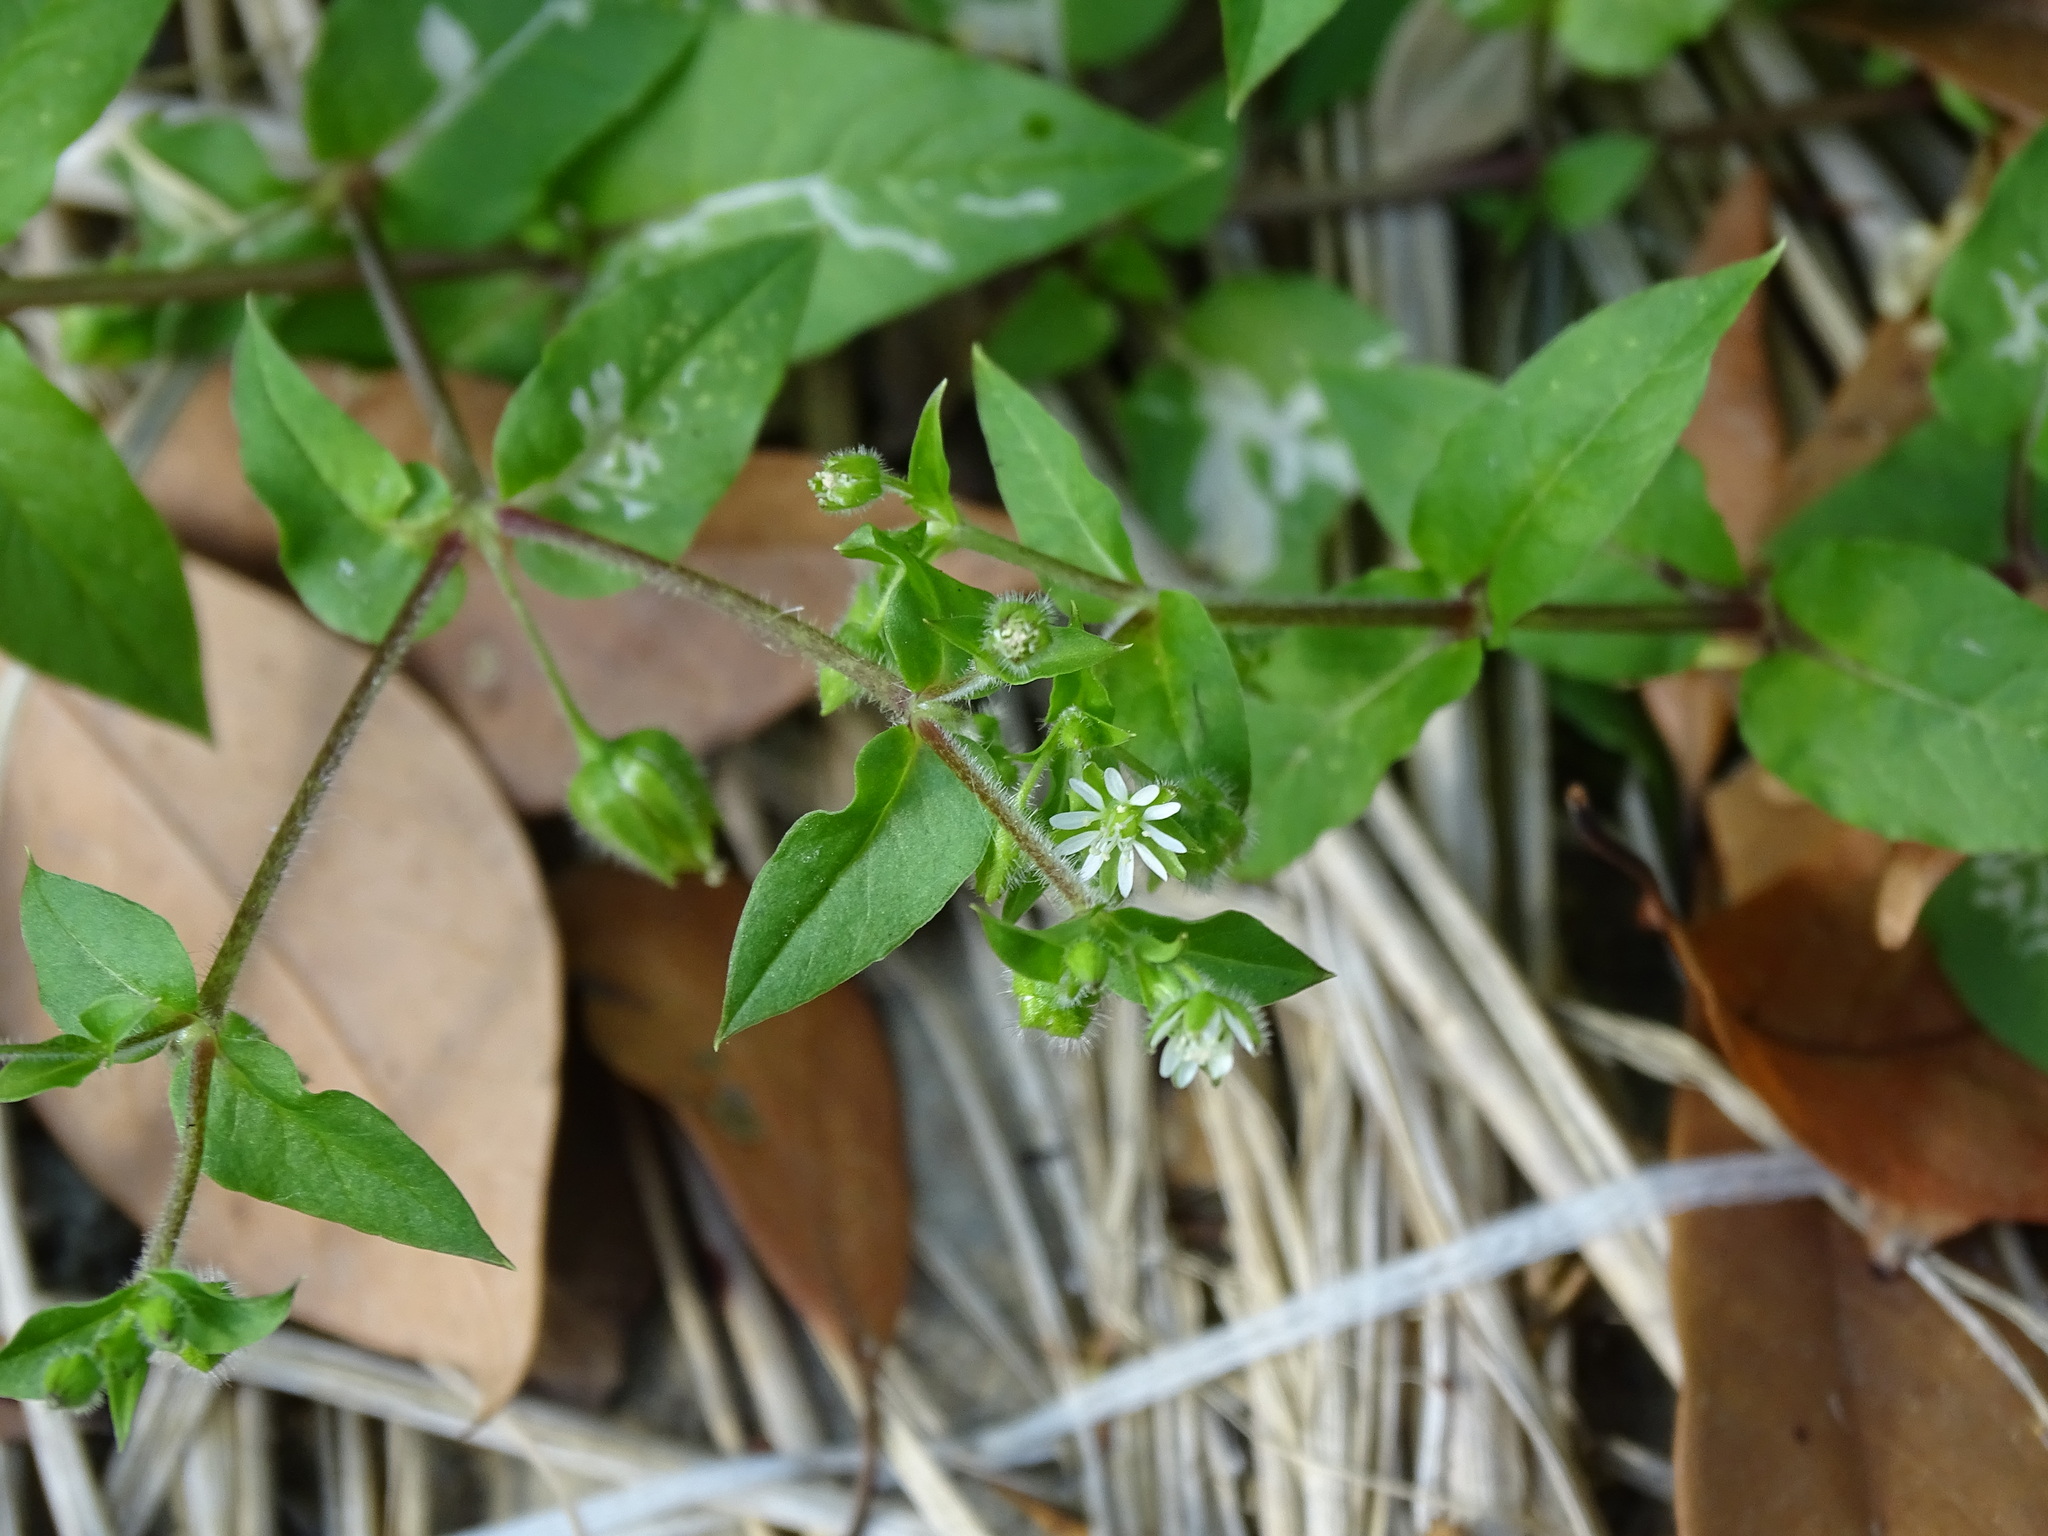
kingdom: Plantae
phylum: Tracheophyta
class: Magnoliopsida
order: Caryophyllales
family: Caryophyllaceae
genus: Stellaria
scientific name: Stellaria aquatica
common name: Water chickweed
